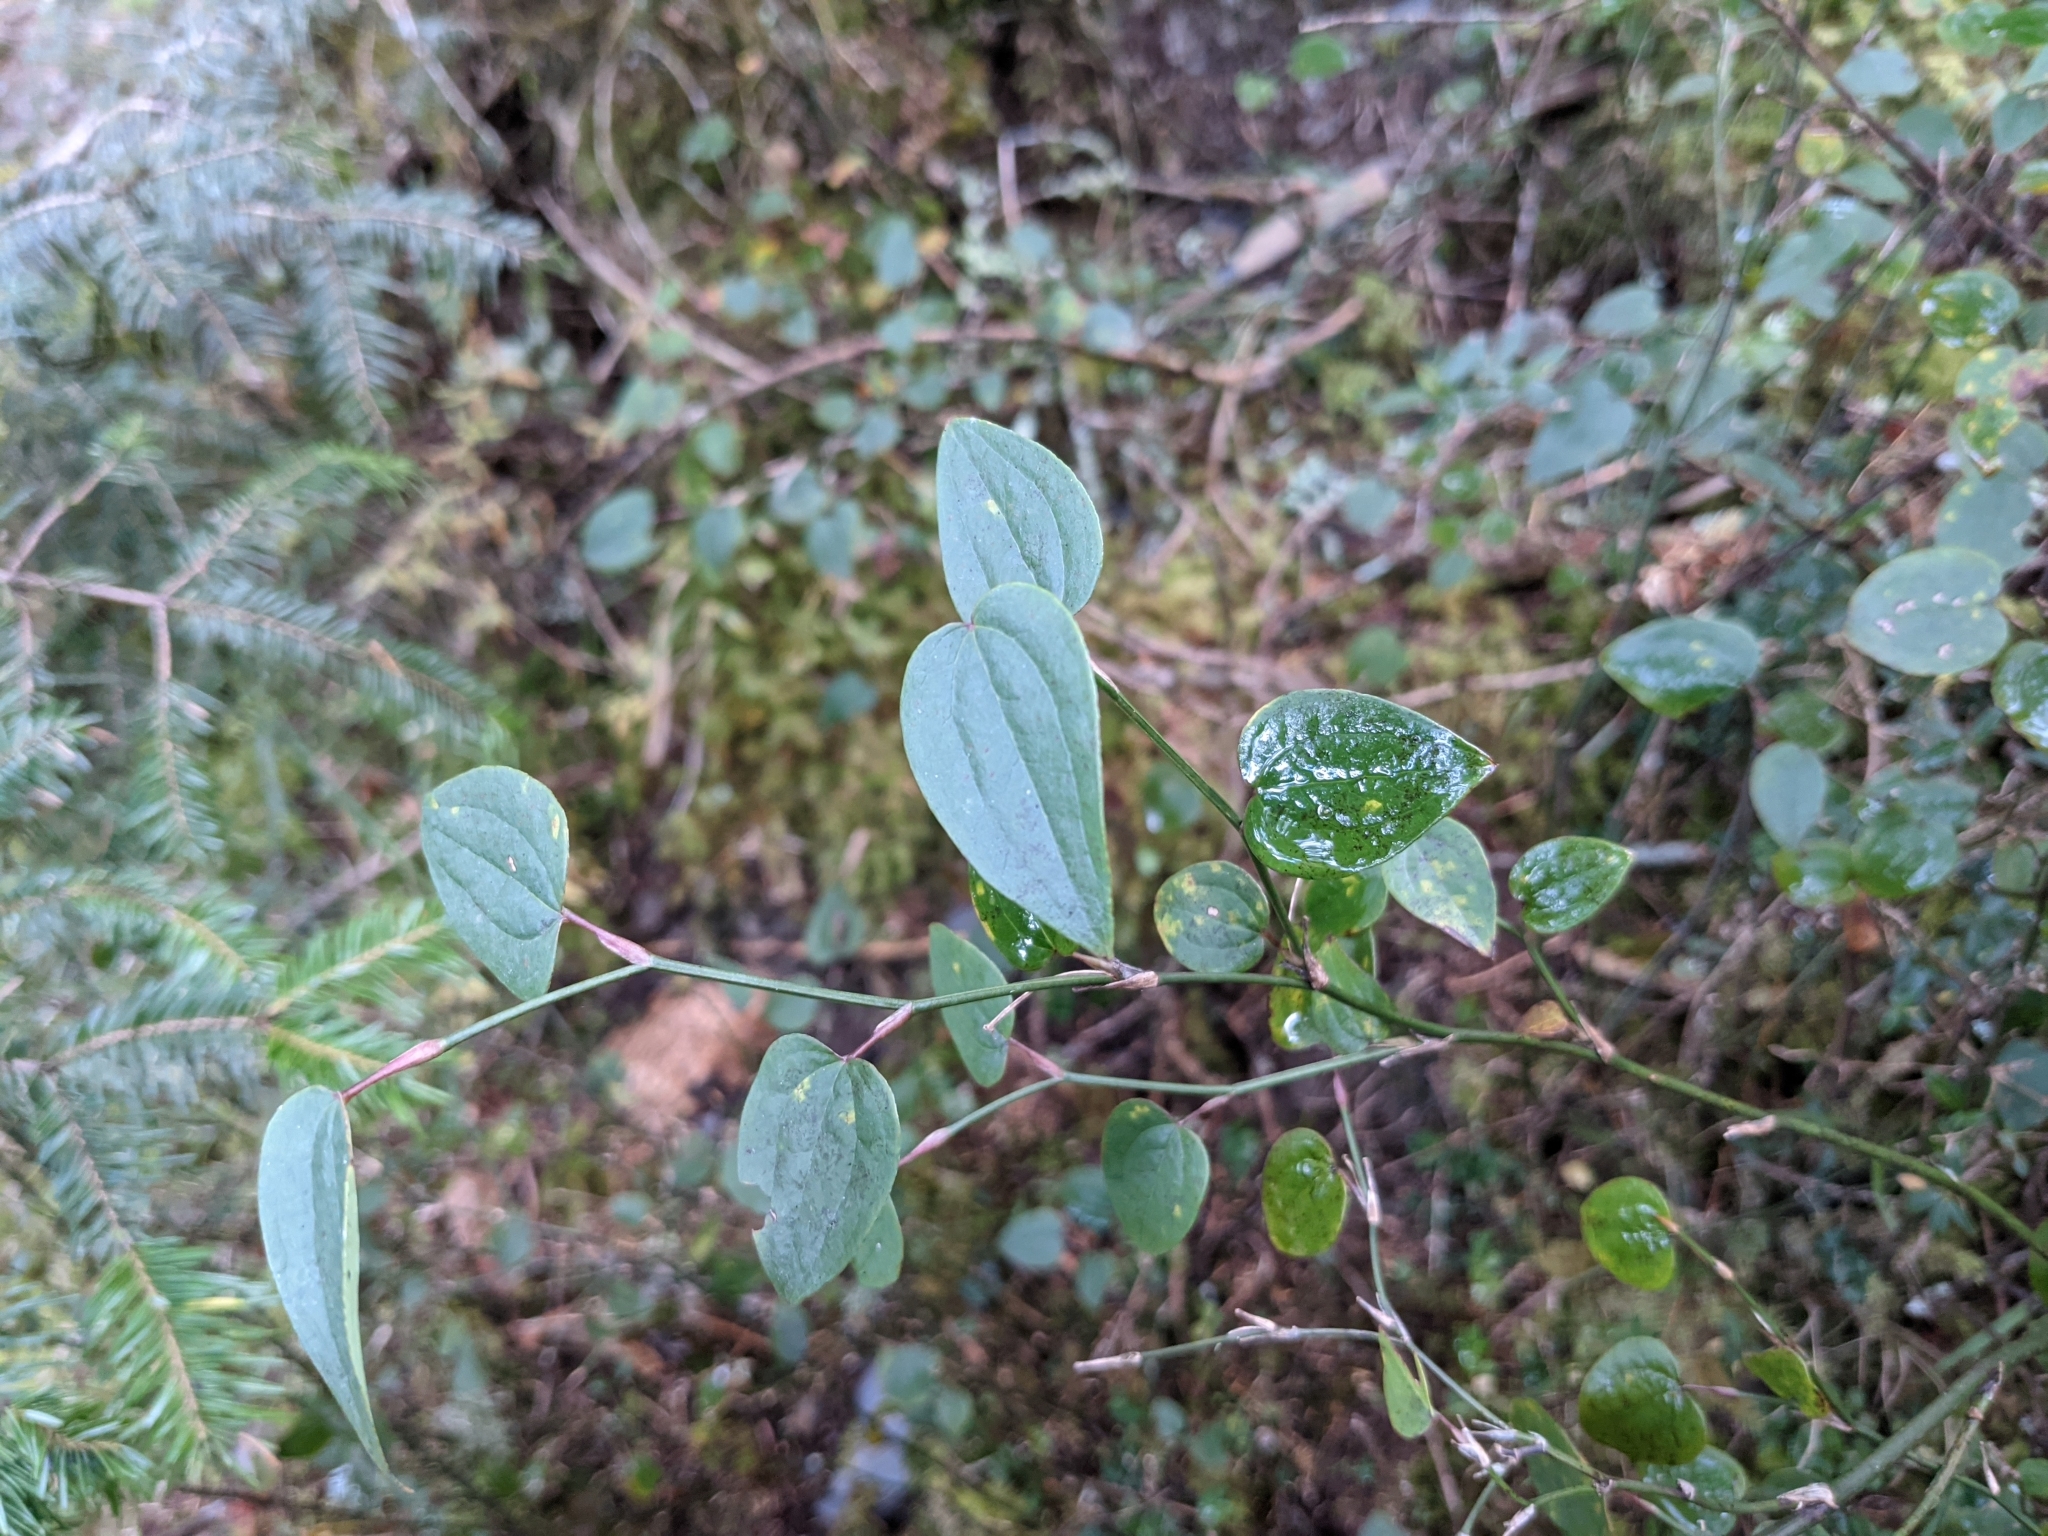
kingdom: Plantae
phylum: Tracheophyta
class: Liliopsida
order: Liliales
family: Smilacaceae
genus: Smilax
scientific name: Smilax vaginata
